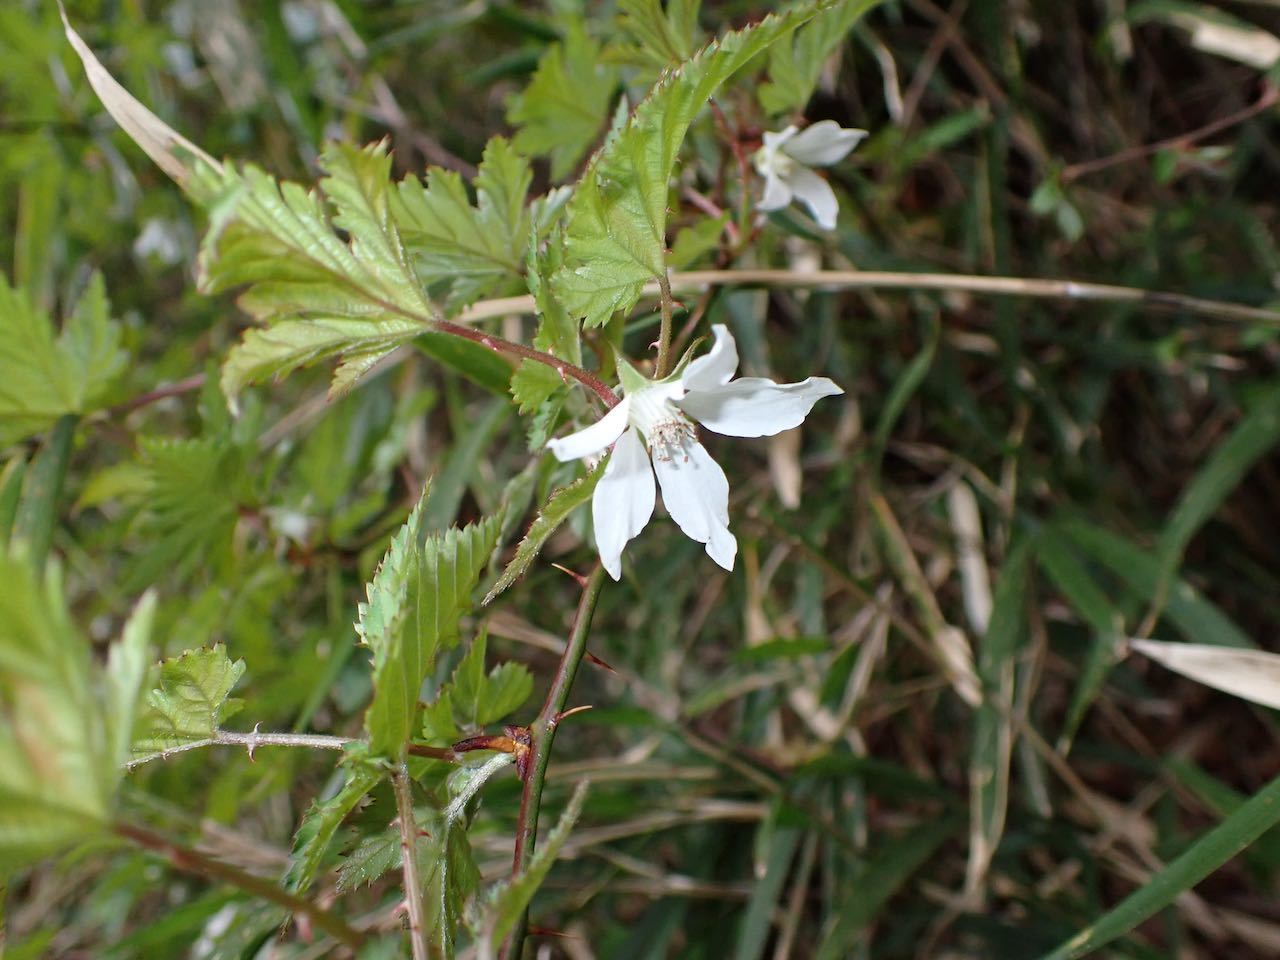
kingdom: Plantae
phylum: Tracheophyta
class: Magnoliopsida
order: Rosales
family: Rosaceae
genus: Rubus
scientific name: Rubus palmatus
